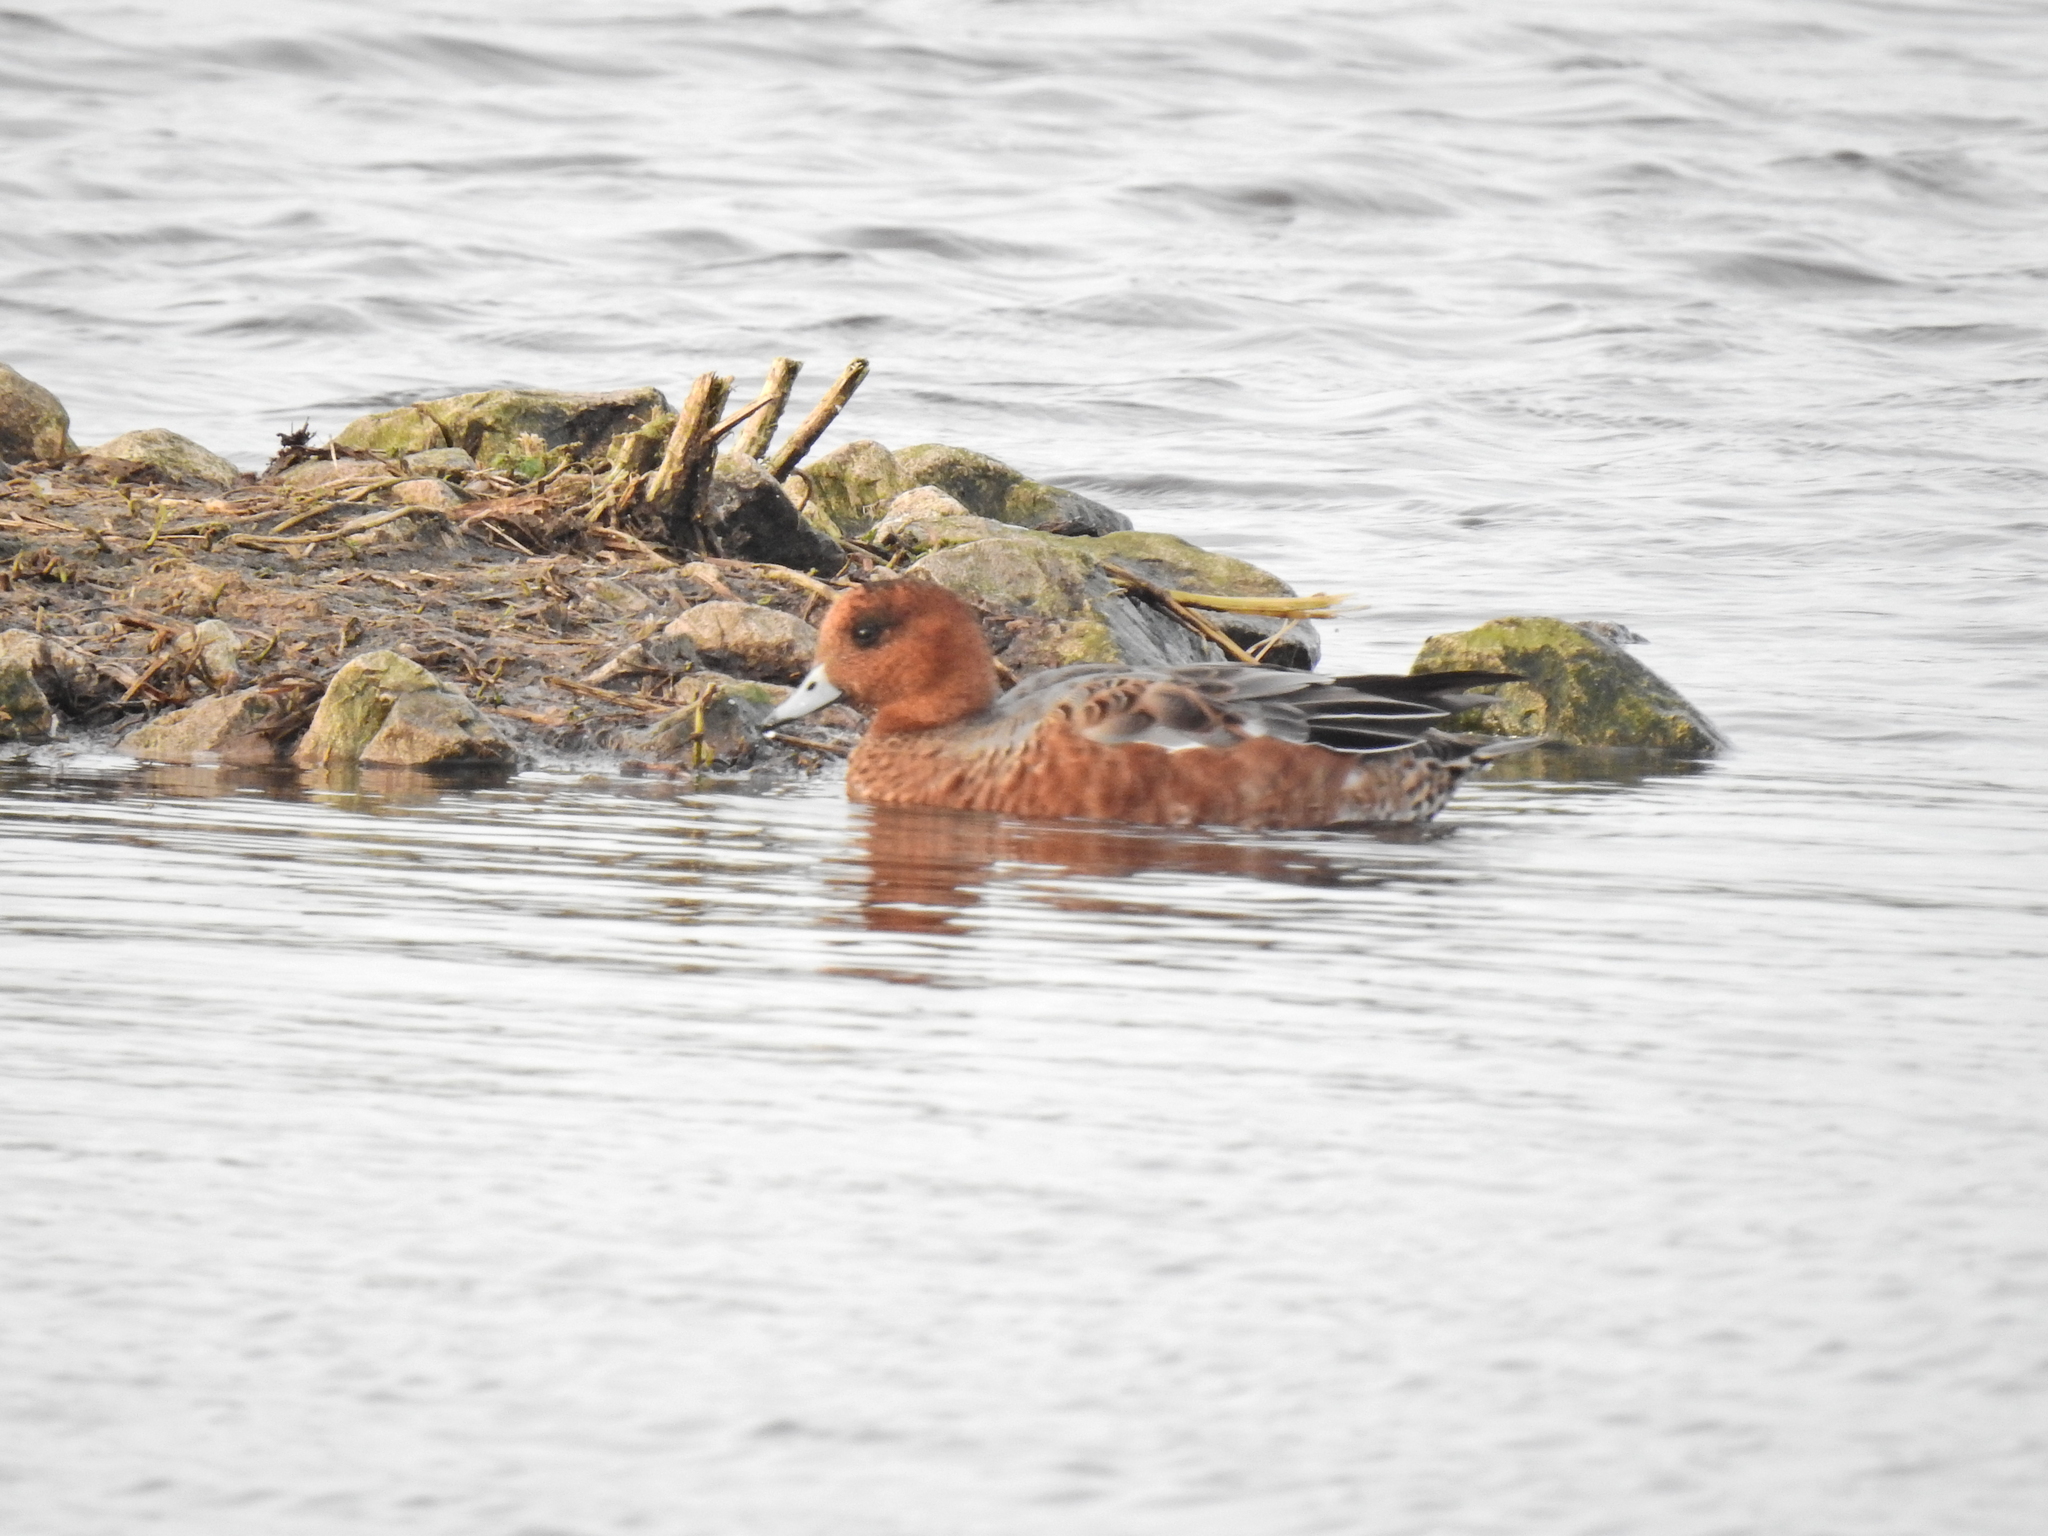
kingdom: Animalia
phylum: Chordata
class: Aves
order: Anseriformes
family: Anatidae
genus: Mareca
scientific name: Mareca penelope
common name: Eurasian wigeon
